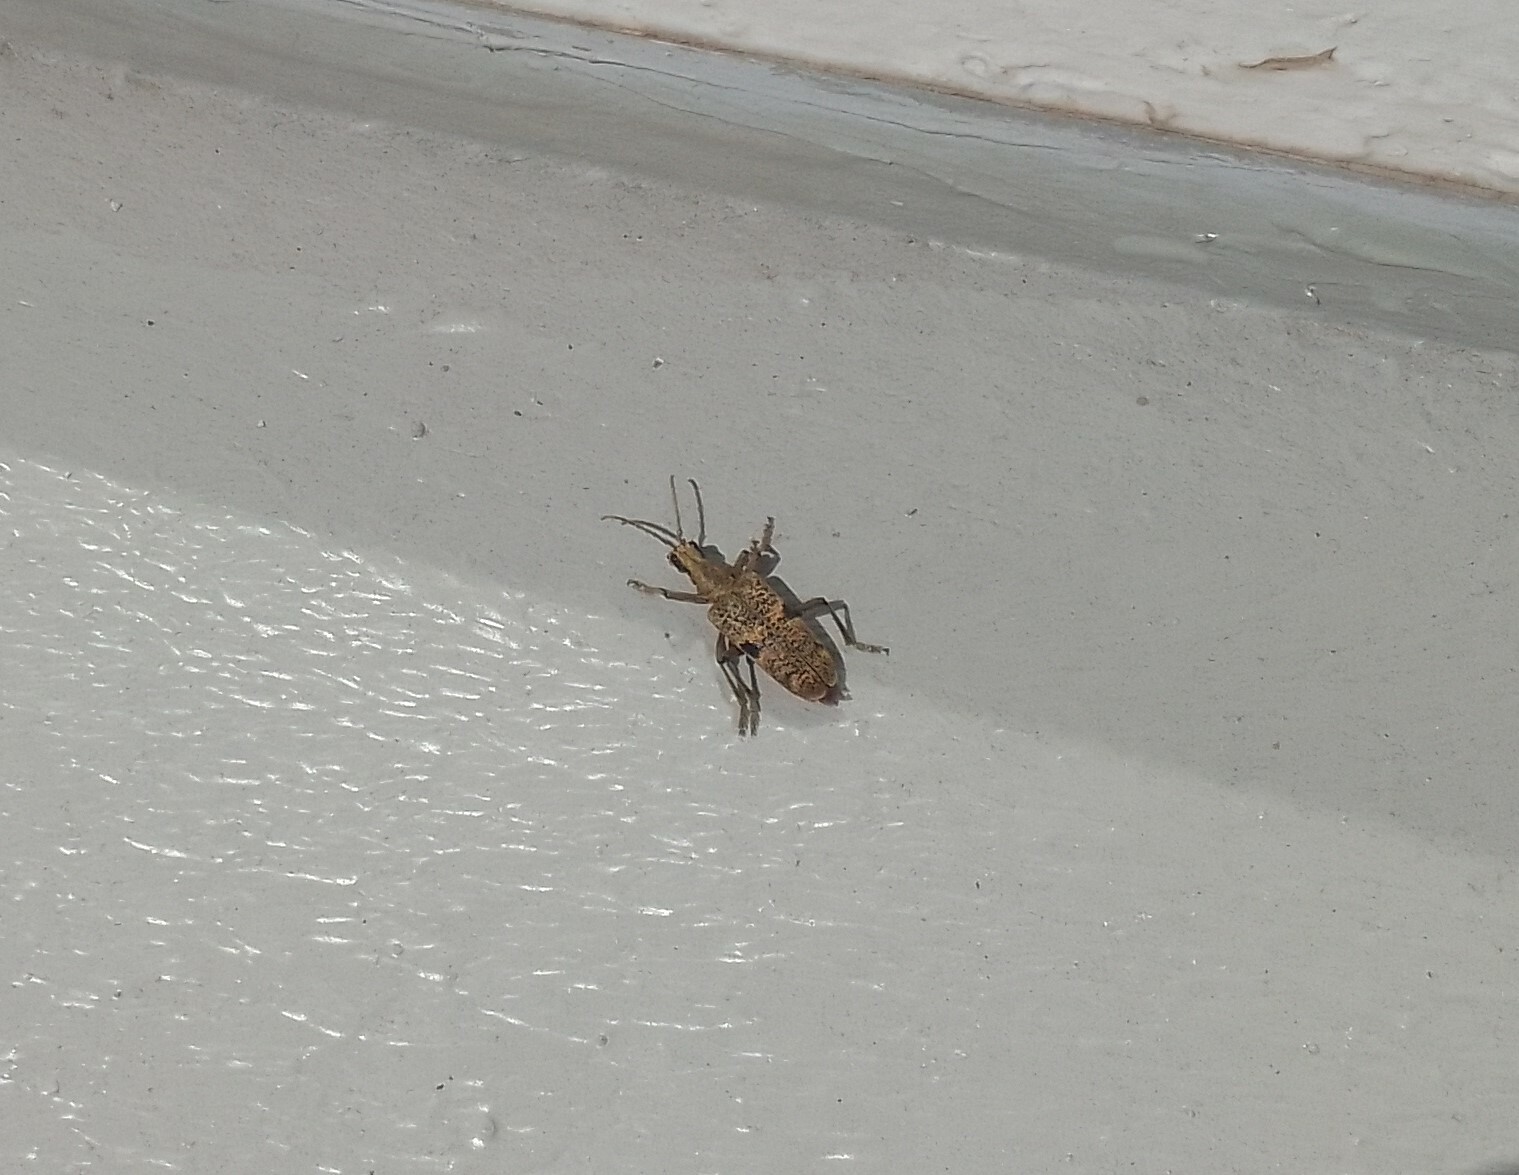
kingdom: Animalia
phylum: Arthropoda
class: Insecta
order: Coleoptera
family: Cerambycidae
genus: Rhagium
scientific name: Rhagium mordax
